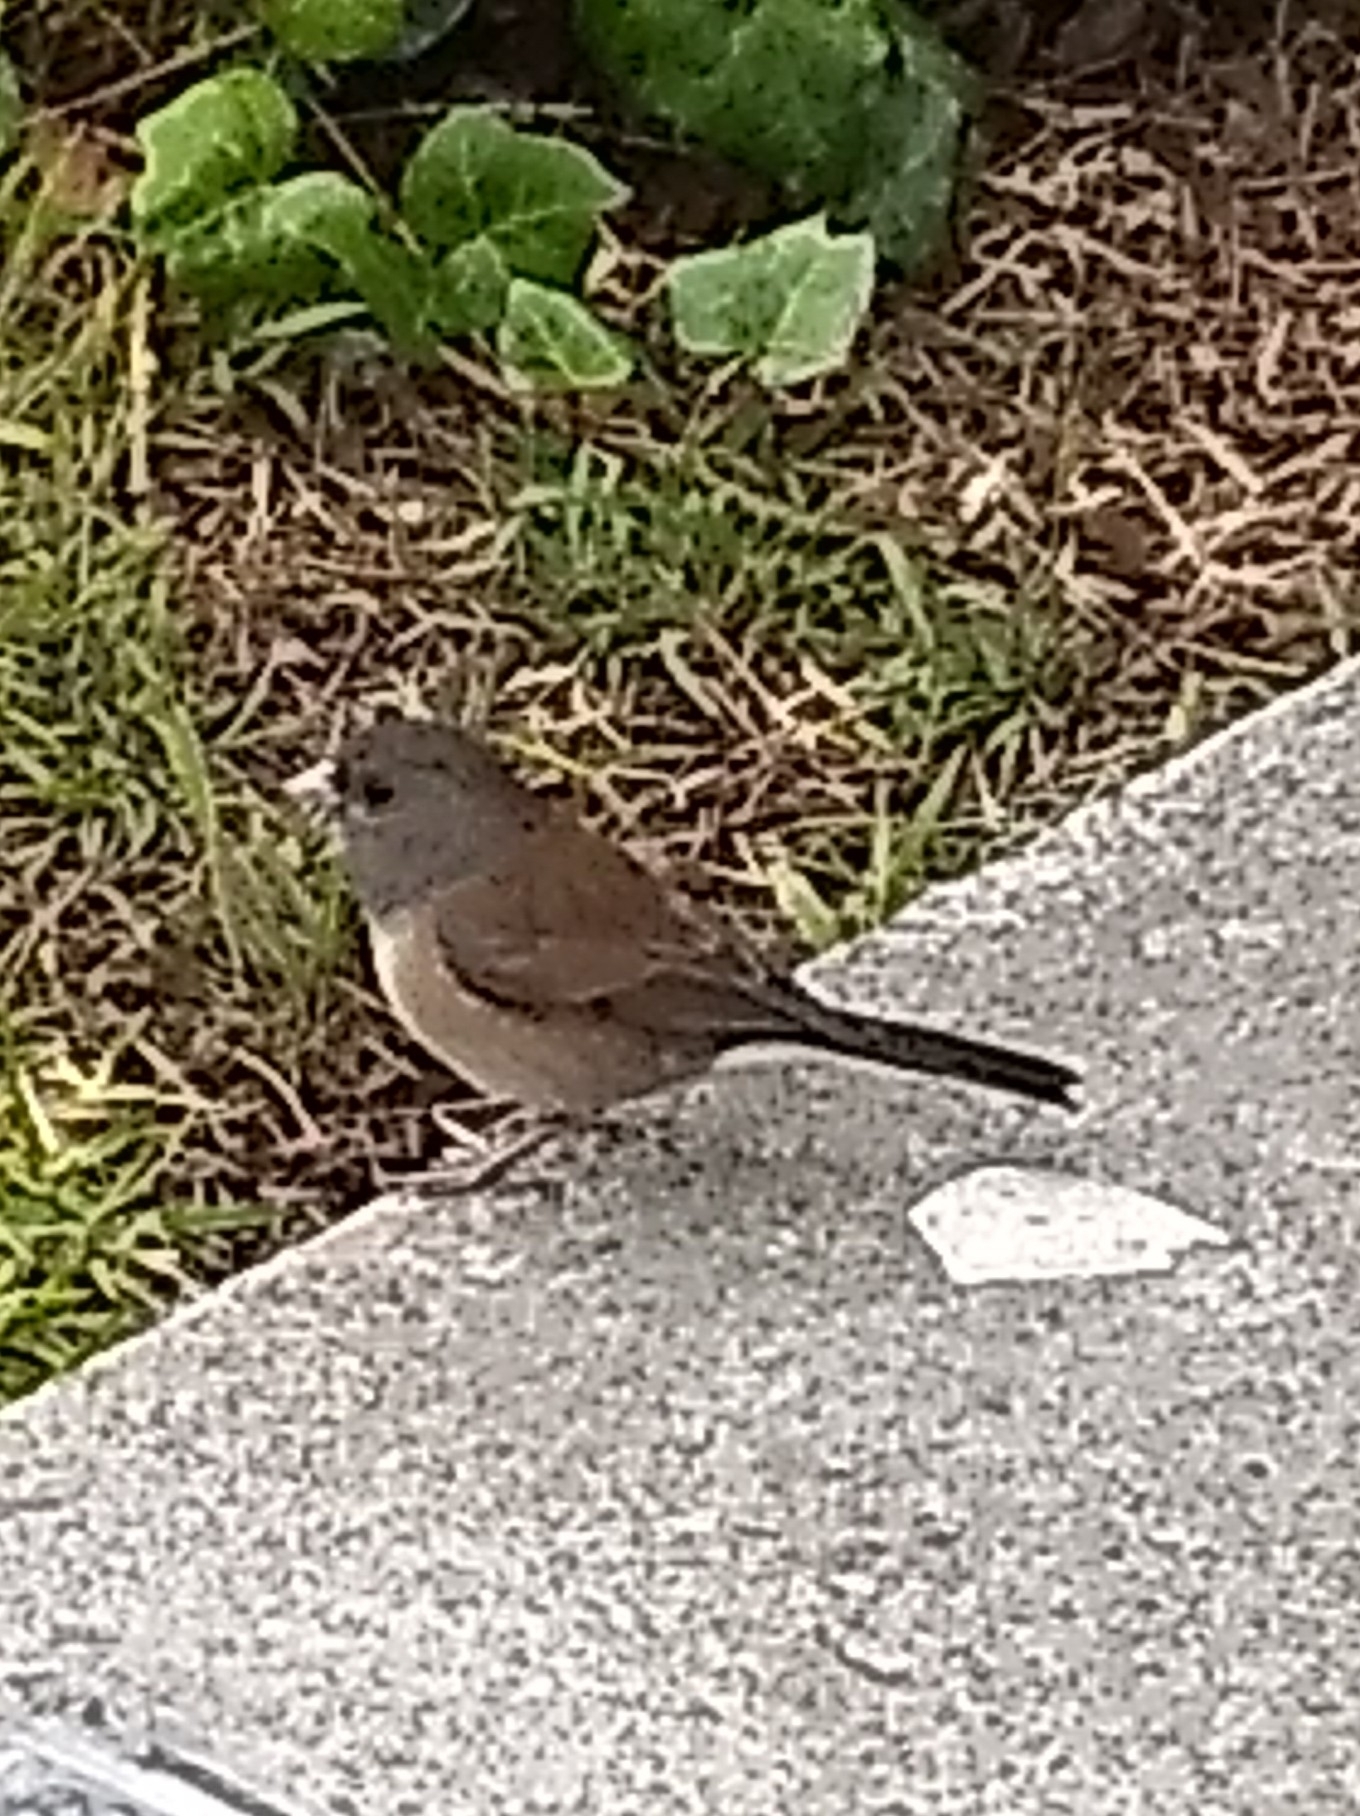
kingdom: Animalia
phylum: Chordata
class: Aves
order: Passeriformes
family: Passerellidae
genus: Junco
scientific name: Junco hyemalis
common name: Dark-eyed junco
